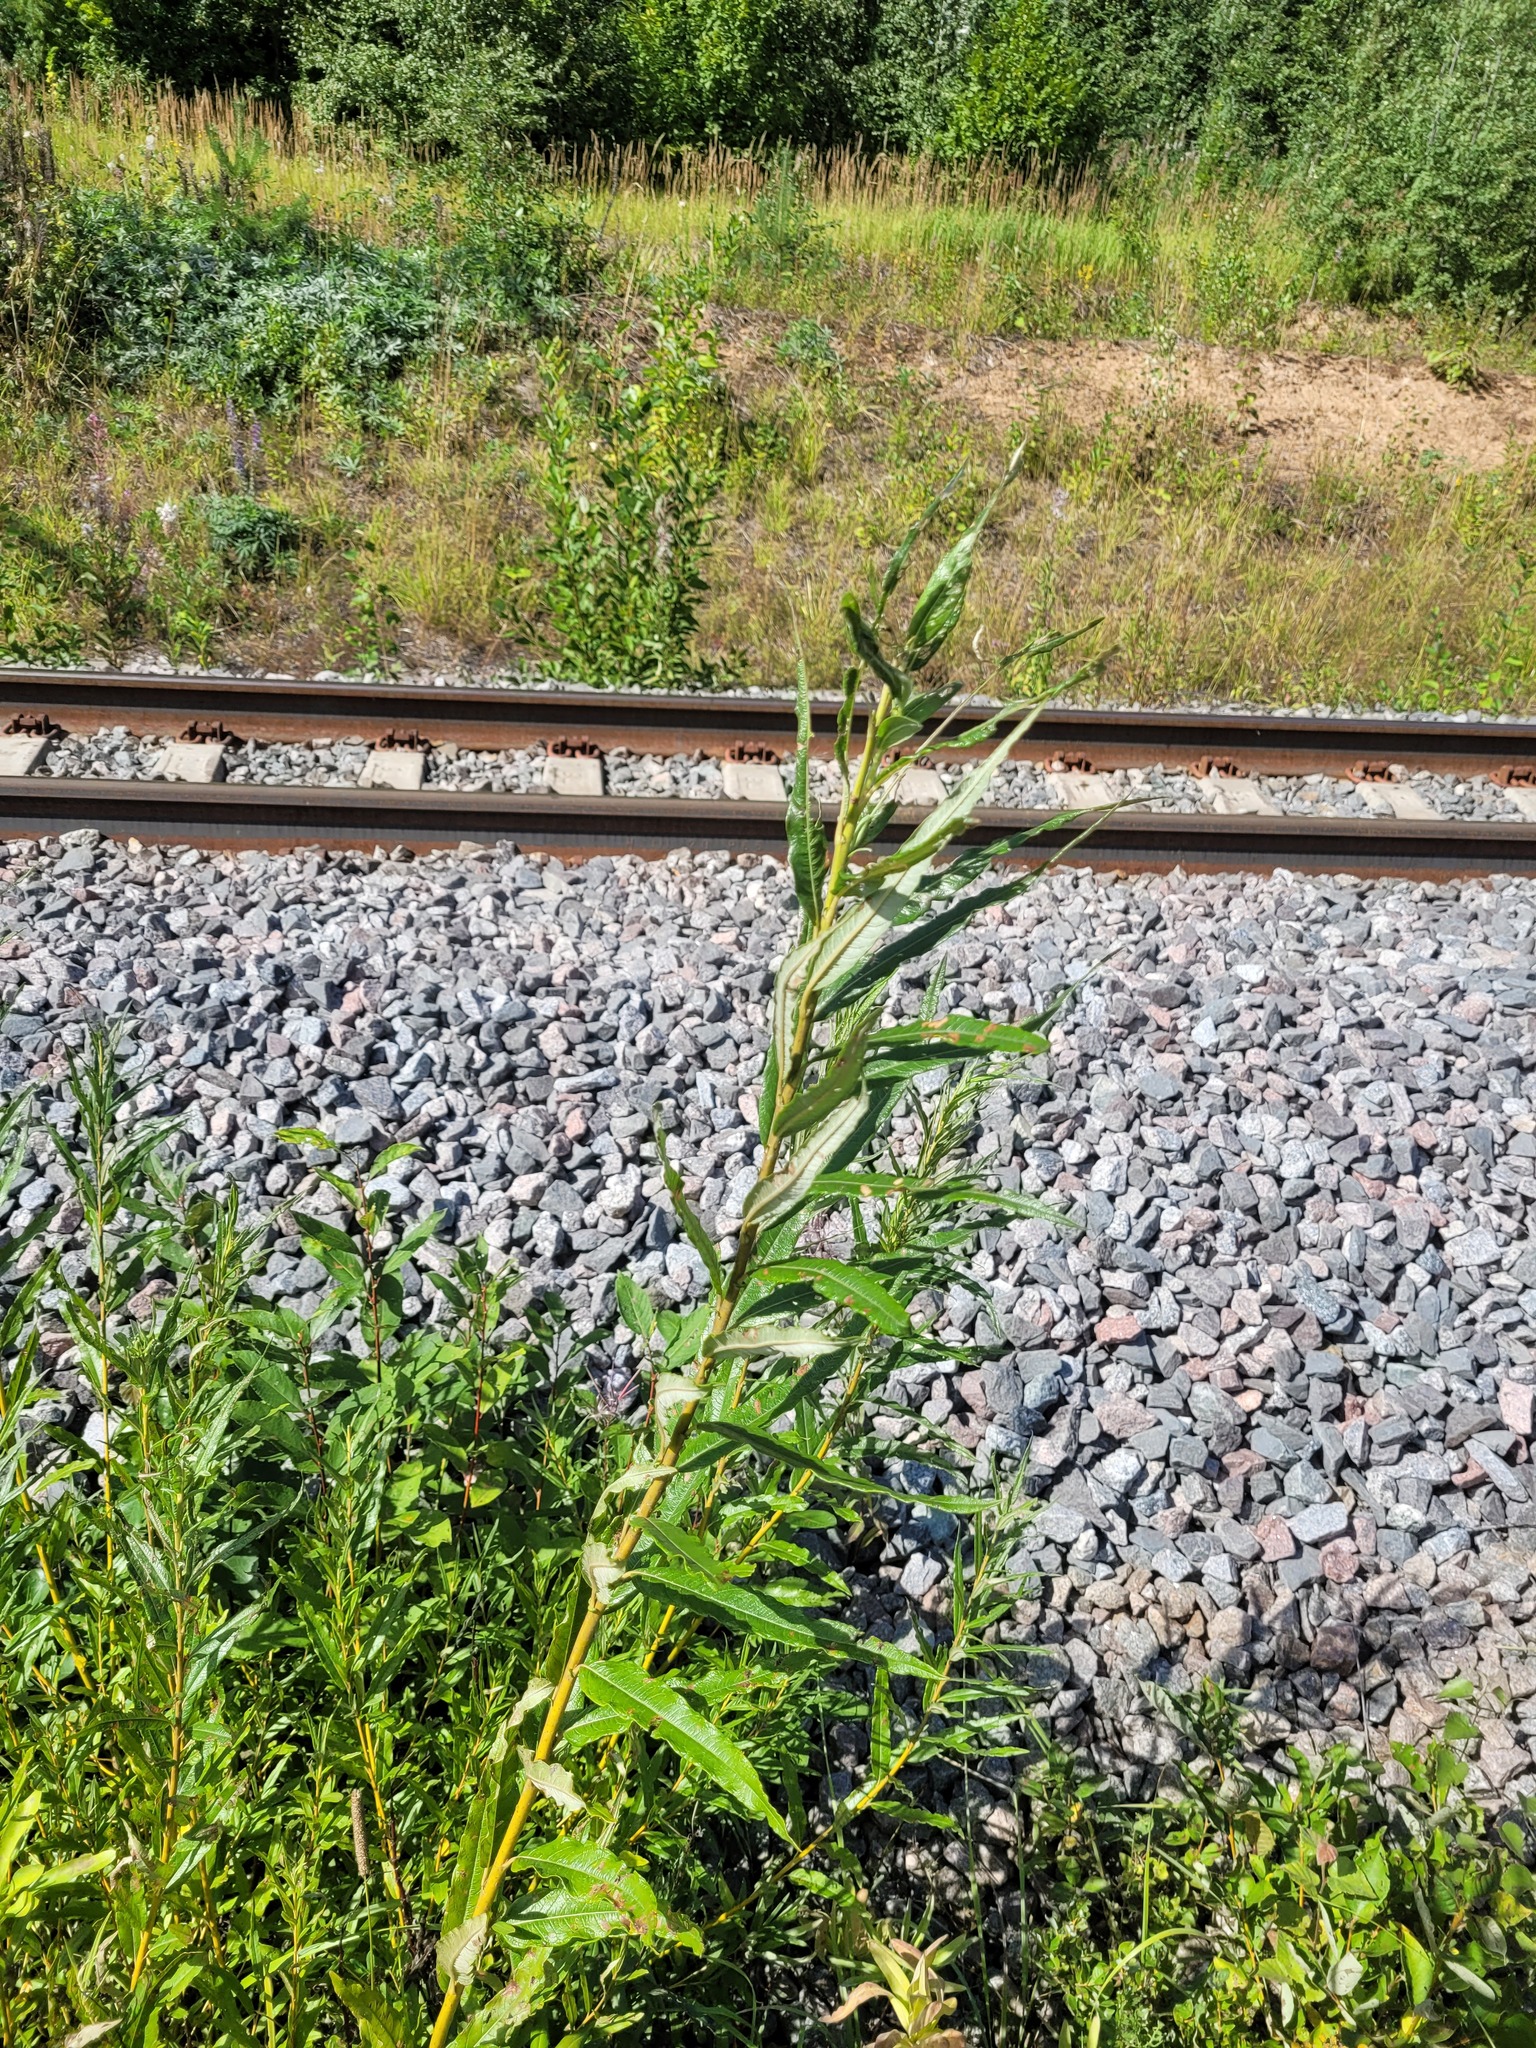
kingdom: Plantae
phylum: Tracheophyta
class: Magnoliopsida
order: Malpighiales
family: Salicaceae
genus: Salix
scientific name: Salix viminalis
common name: Osier
